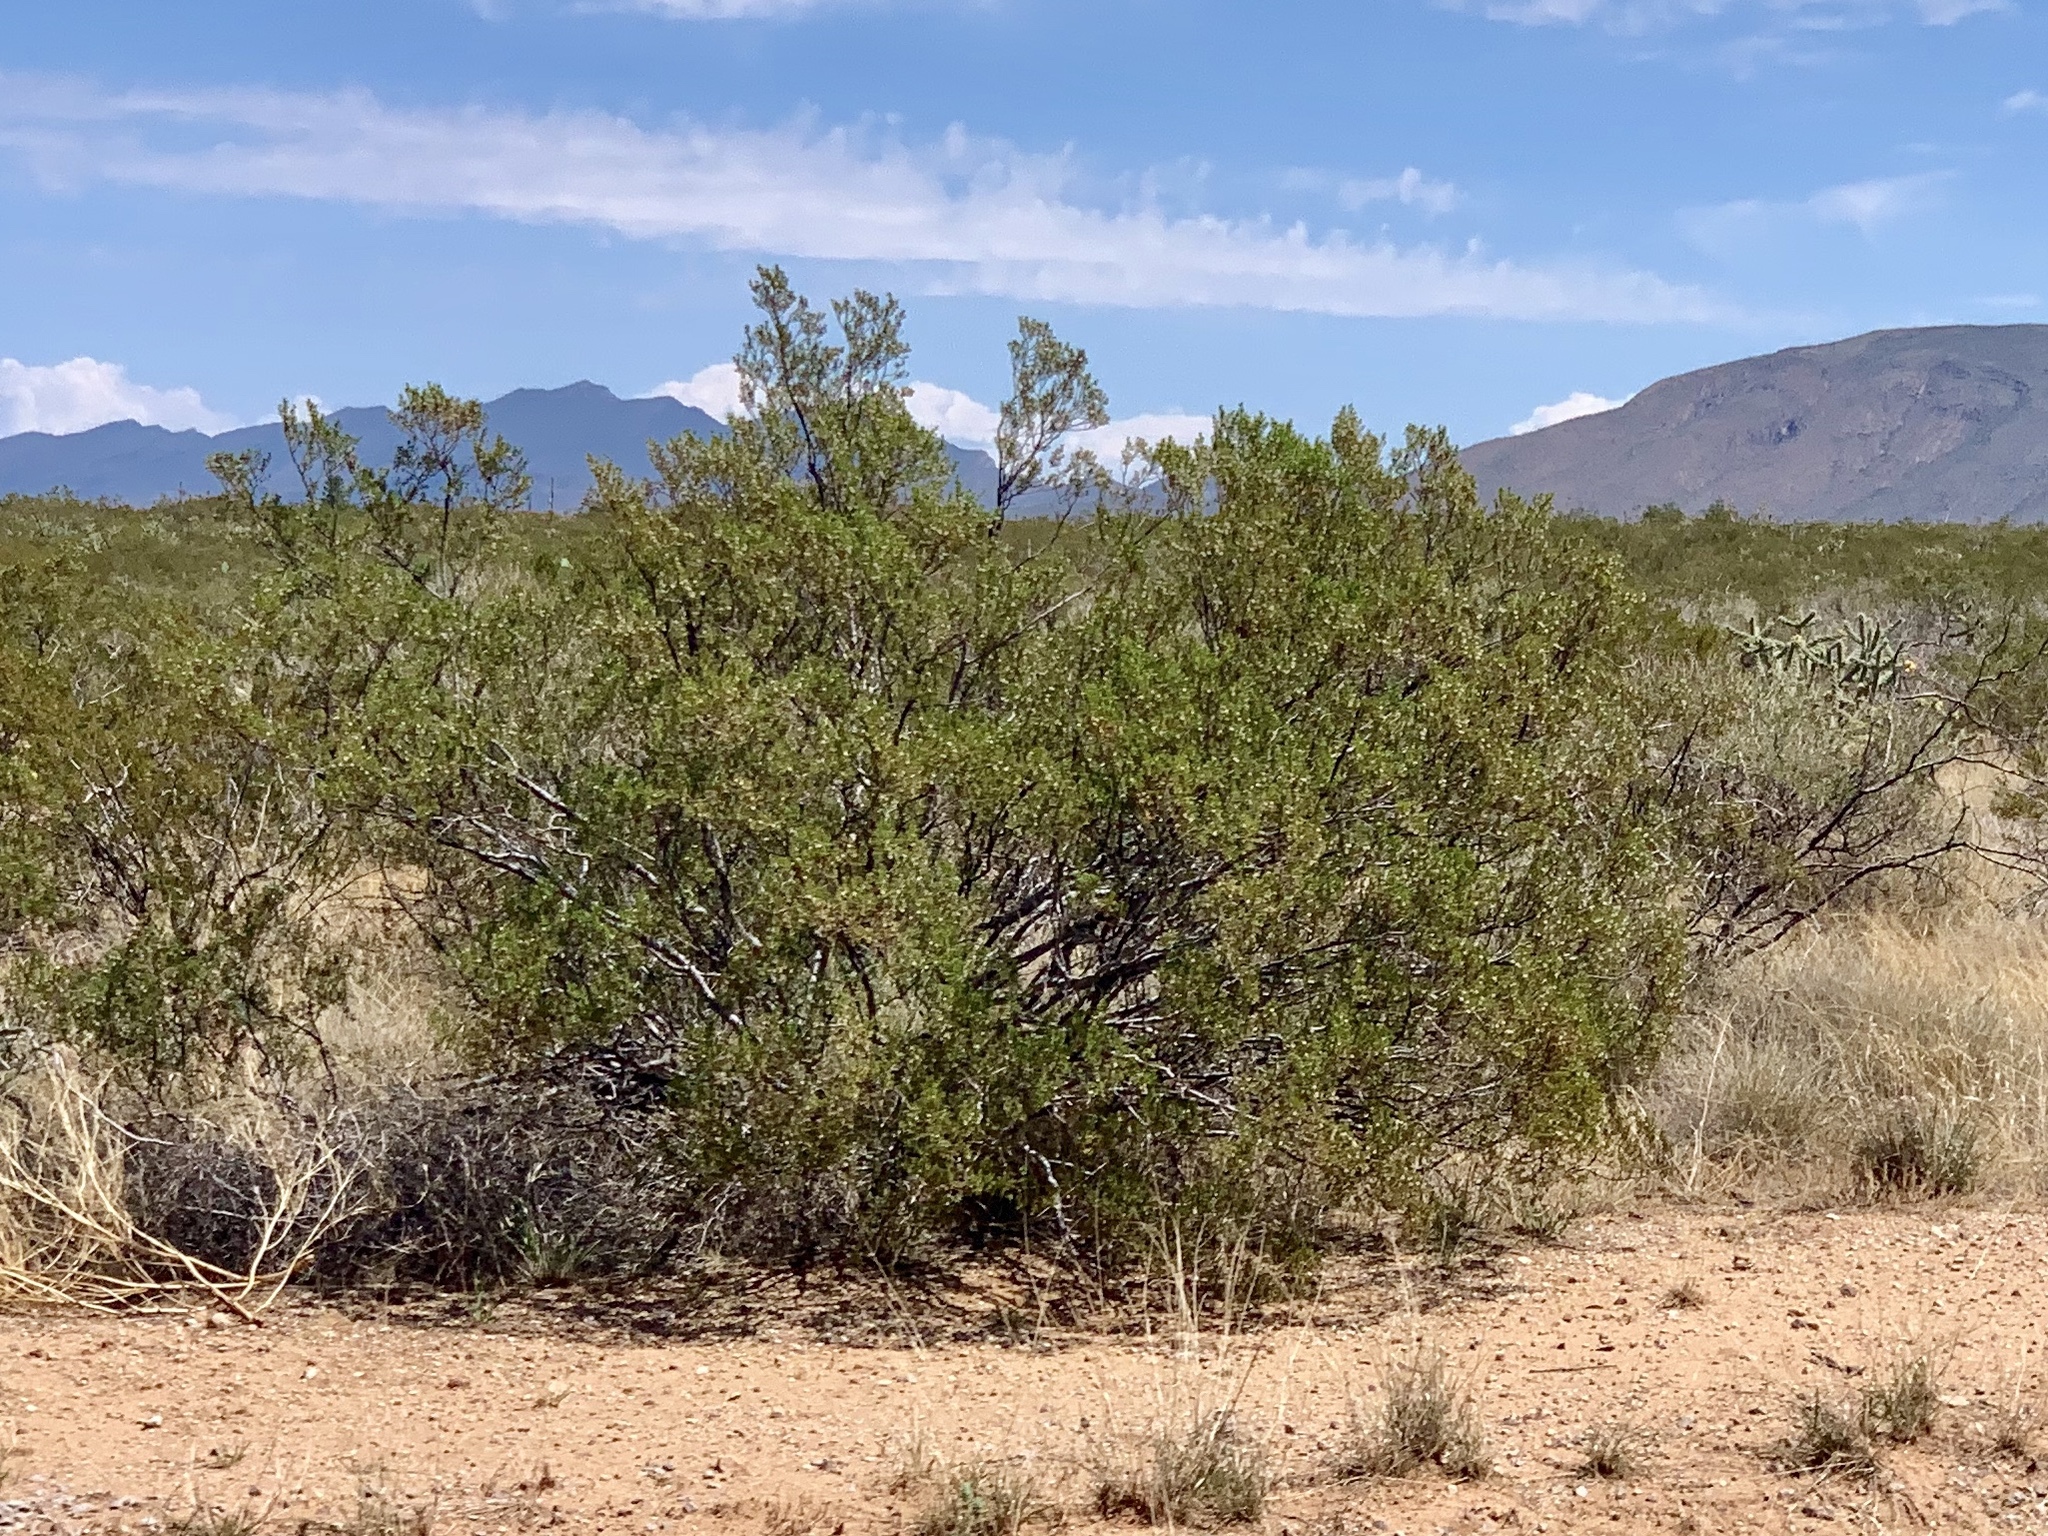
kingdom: Plantae
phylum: Tracheophyta
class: Magnoliopsida
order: Zygophyllales
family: Zygophyllaceae
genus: Larrea
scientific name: Larrea tridentata
